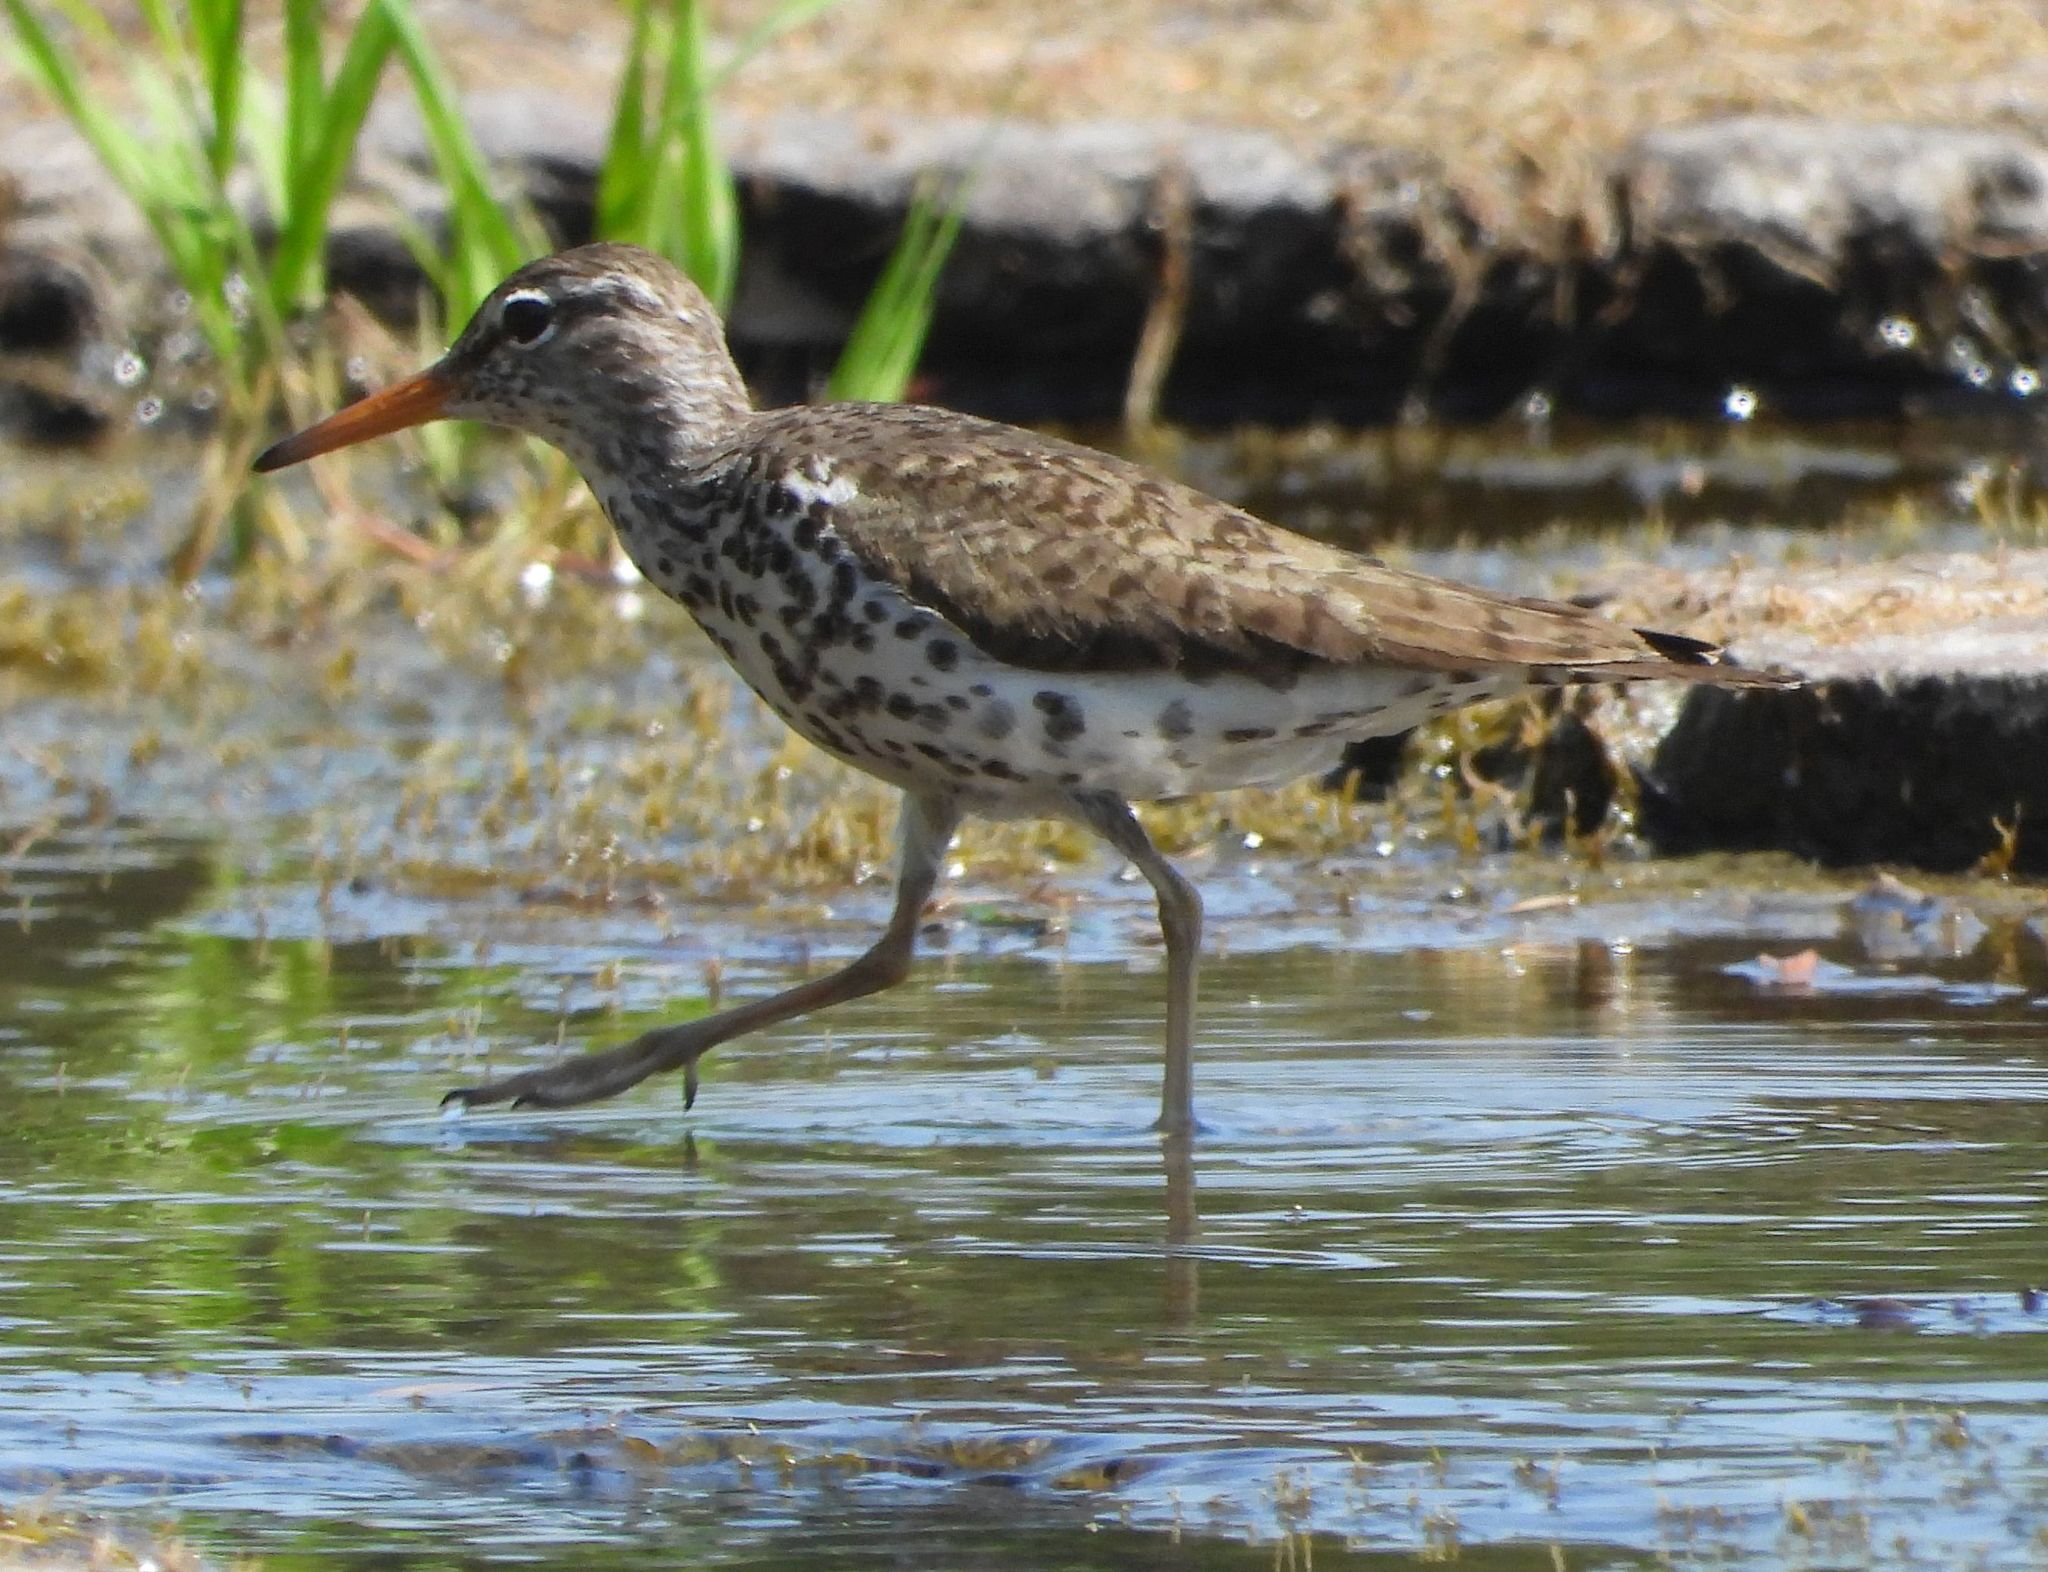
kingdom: Animalia
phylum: Chordata
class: Aves
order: Charadriiformes
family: Scolopacidae
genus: Actitis
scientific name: Actitis macularius
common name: Spotted sandpiper
